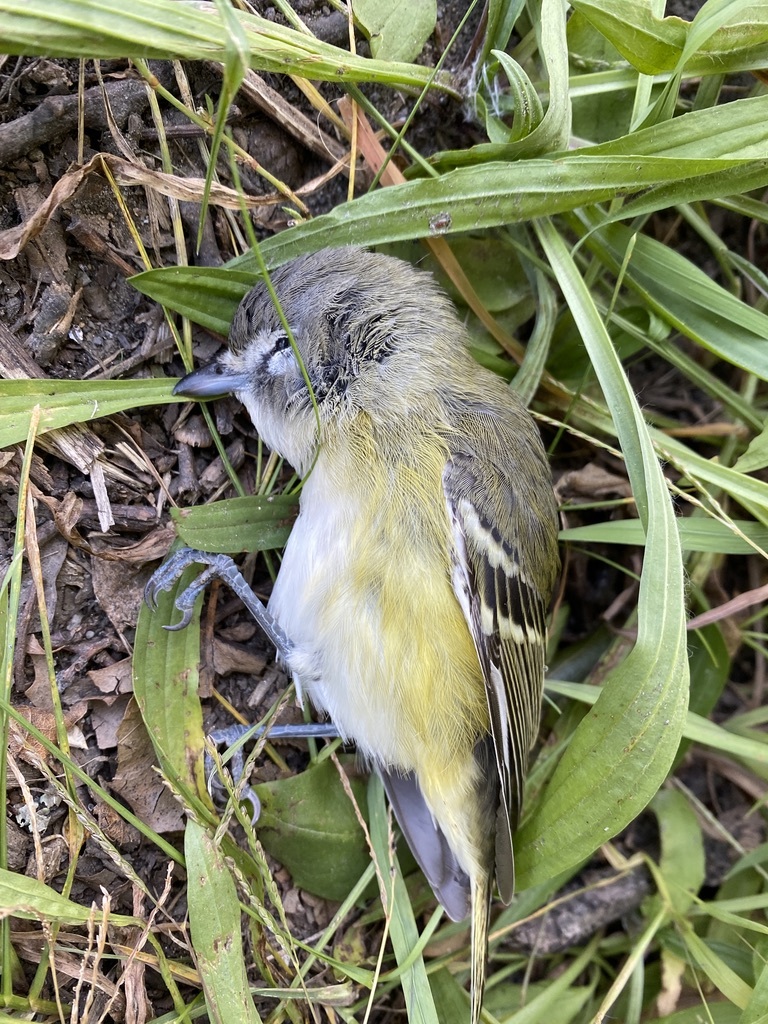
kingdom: Animalia
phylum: Chordata
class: Aves
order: Passeriformes
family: Vireonidae
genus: Vireo
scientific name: Vireo solitarius
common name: Blue-headed vireo
